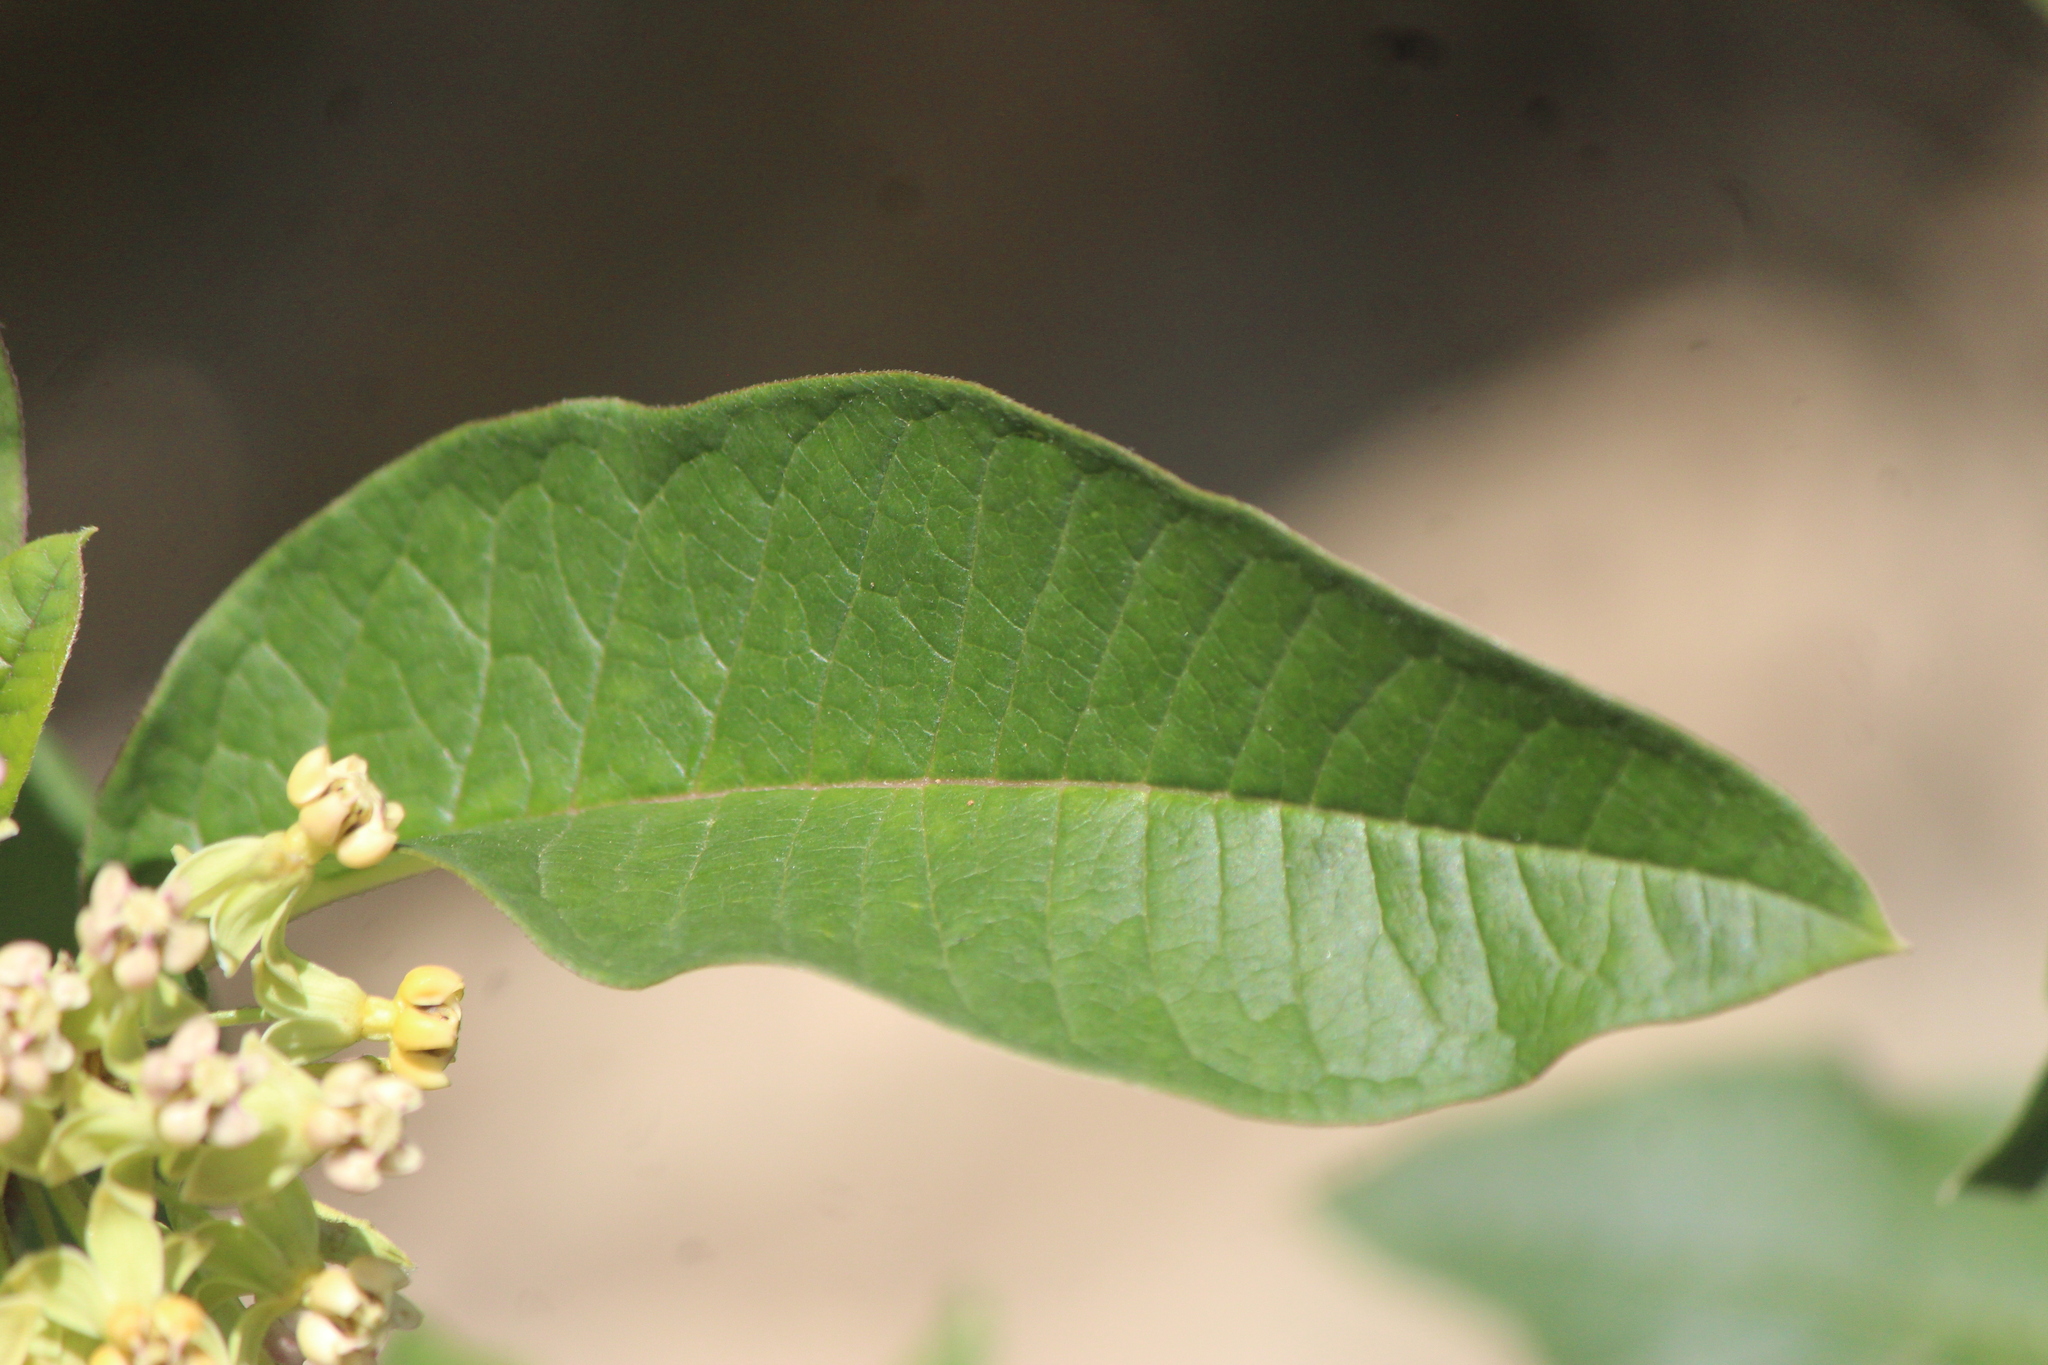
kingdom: Plantae
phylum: Tracheophyta
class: Magnoliopsida
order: Gentianales
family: Apocynaceae
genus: Asclepias
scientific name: Asclepias similis
